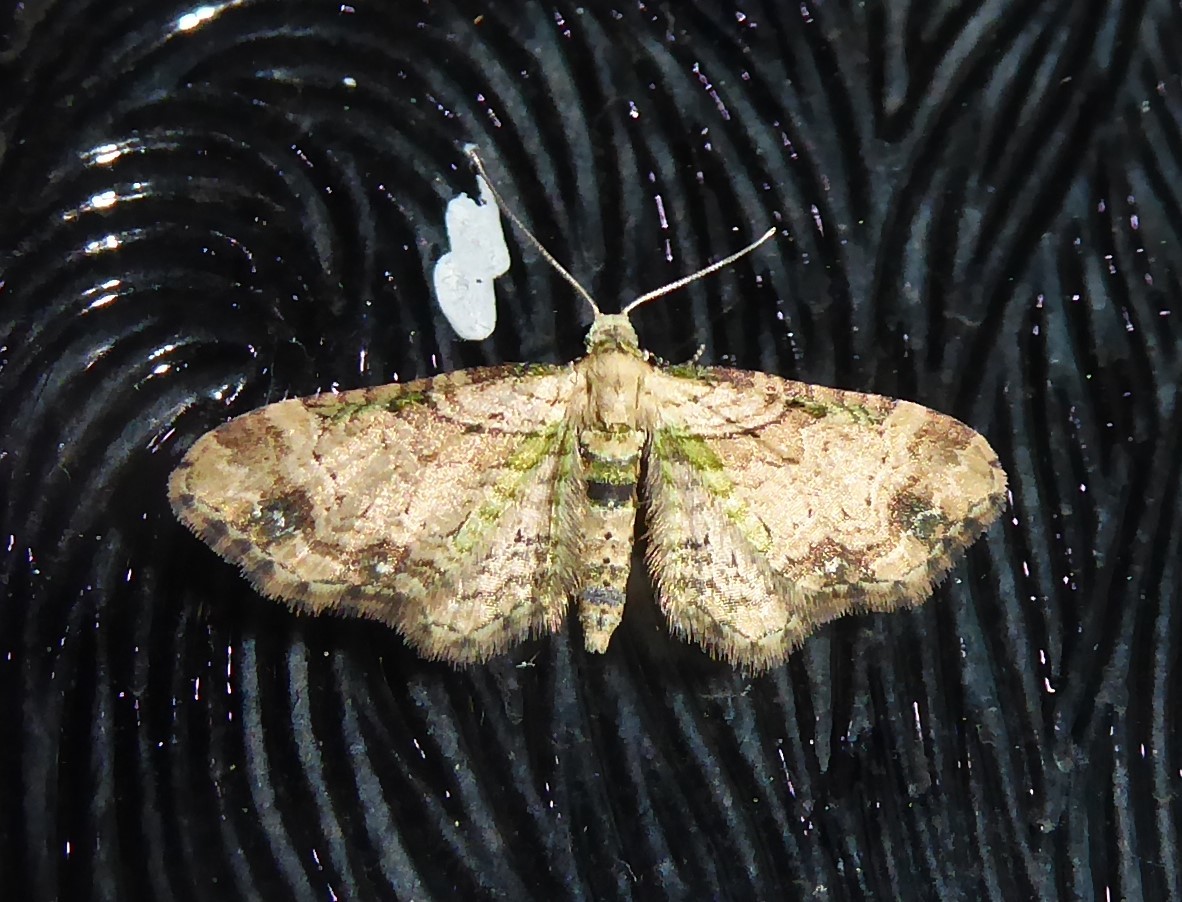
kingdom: Animalia
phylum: Arthropoda
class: Insecta
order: Lepidoptera
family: Geometridae
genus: Chloroclystis
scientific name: Chloroclystis
